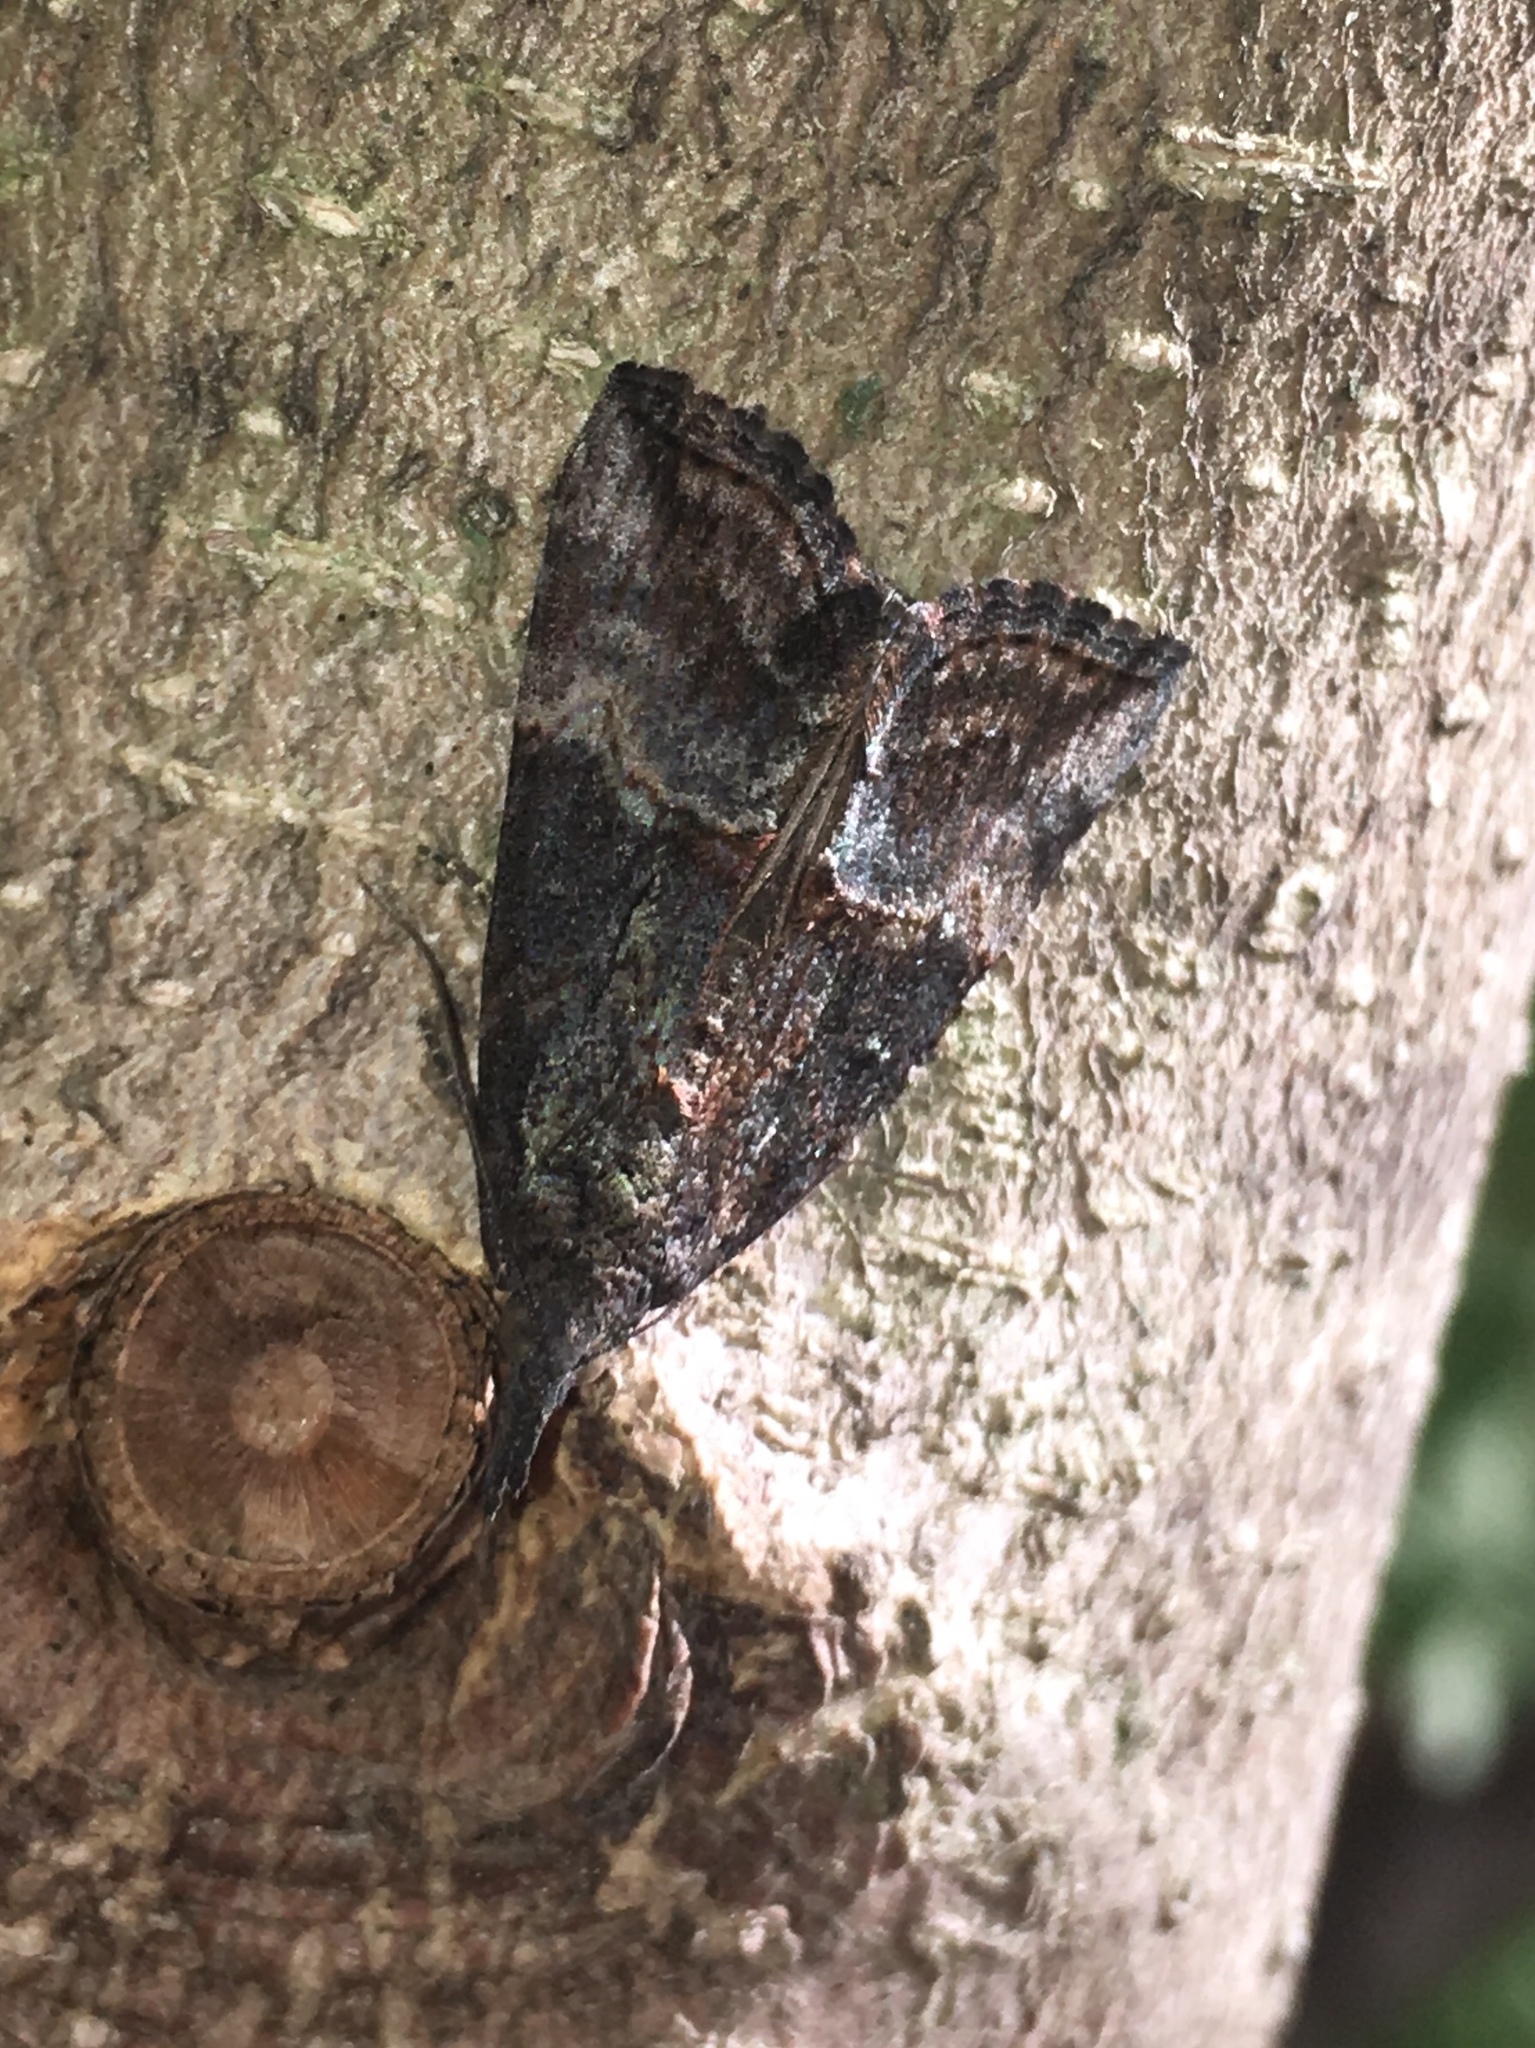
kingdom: Animalia
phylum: Arthropoda
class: Insecta
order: Lepidoptera
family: Erebidae
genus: Hypena
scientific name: Hypena scabra
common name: Green cloverworm
